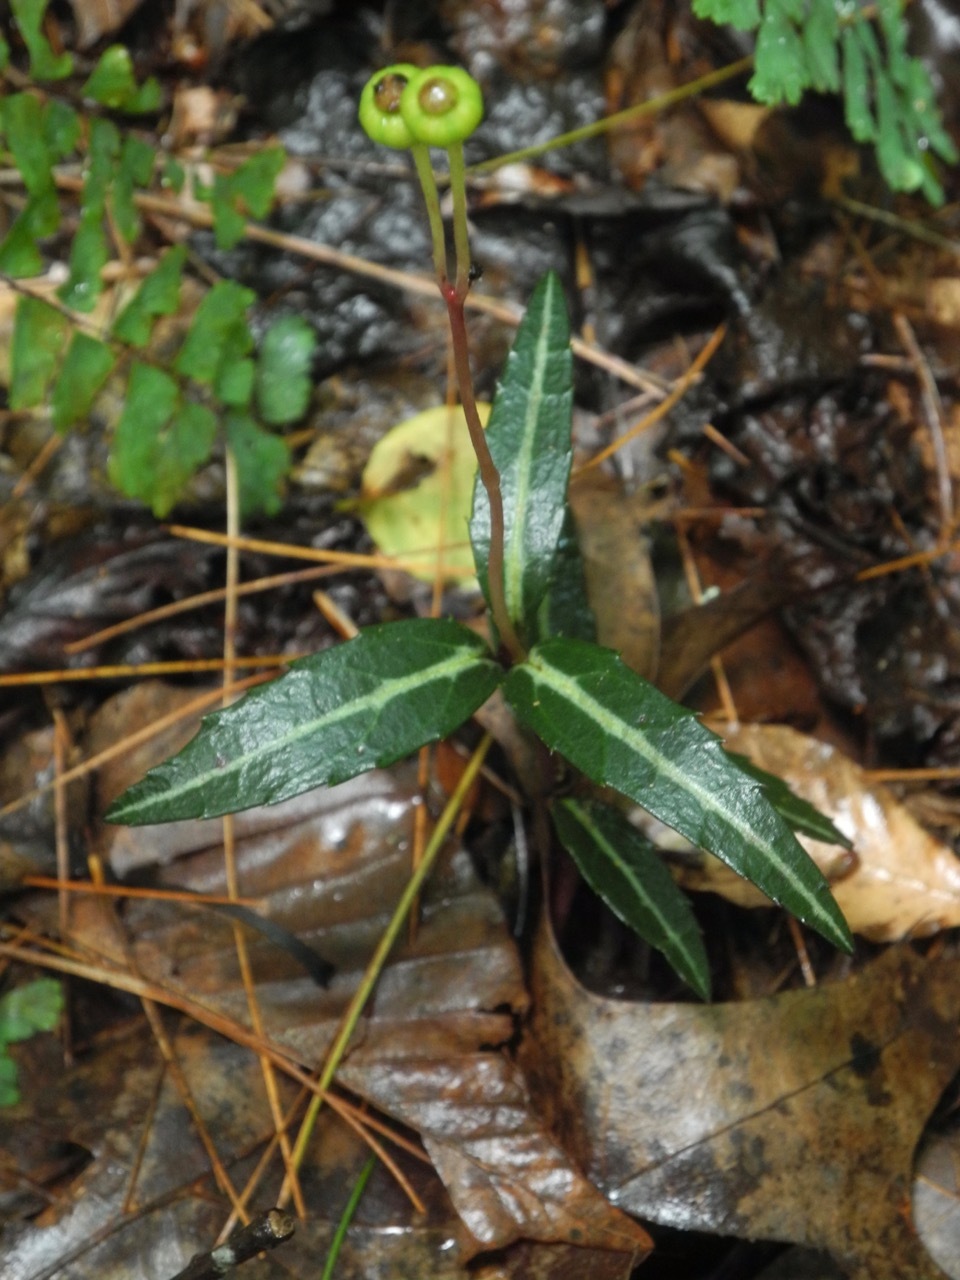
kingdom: Plantae
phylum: Tracheophyta
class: Magnoliopsida
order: Ericales
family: Ericaceae
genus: Chimaphila
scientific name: Chimaphila maculata
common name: Spotted pipsissewa
